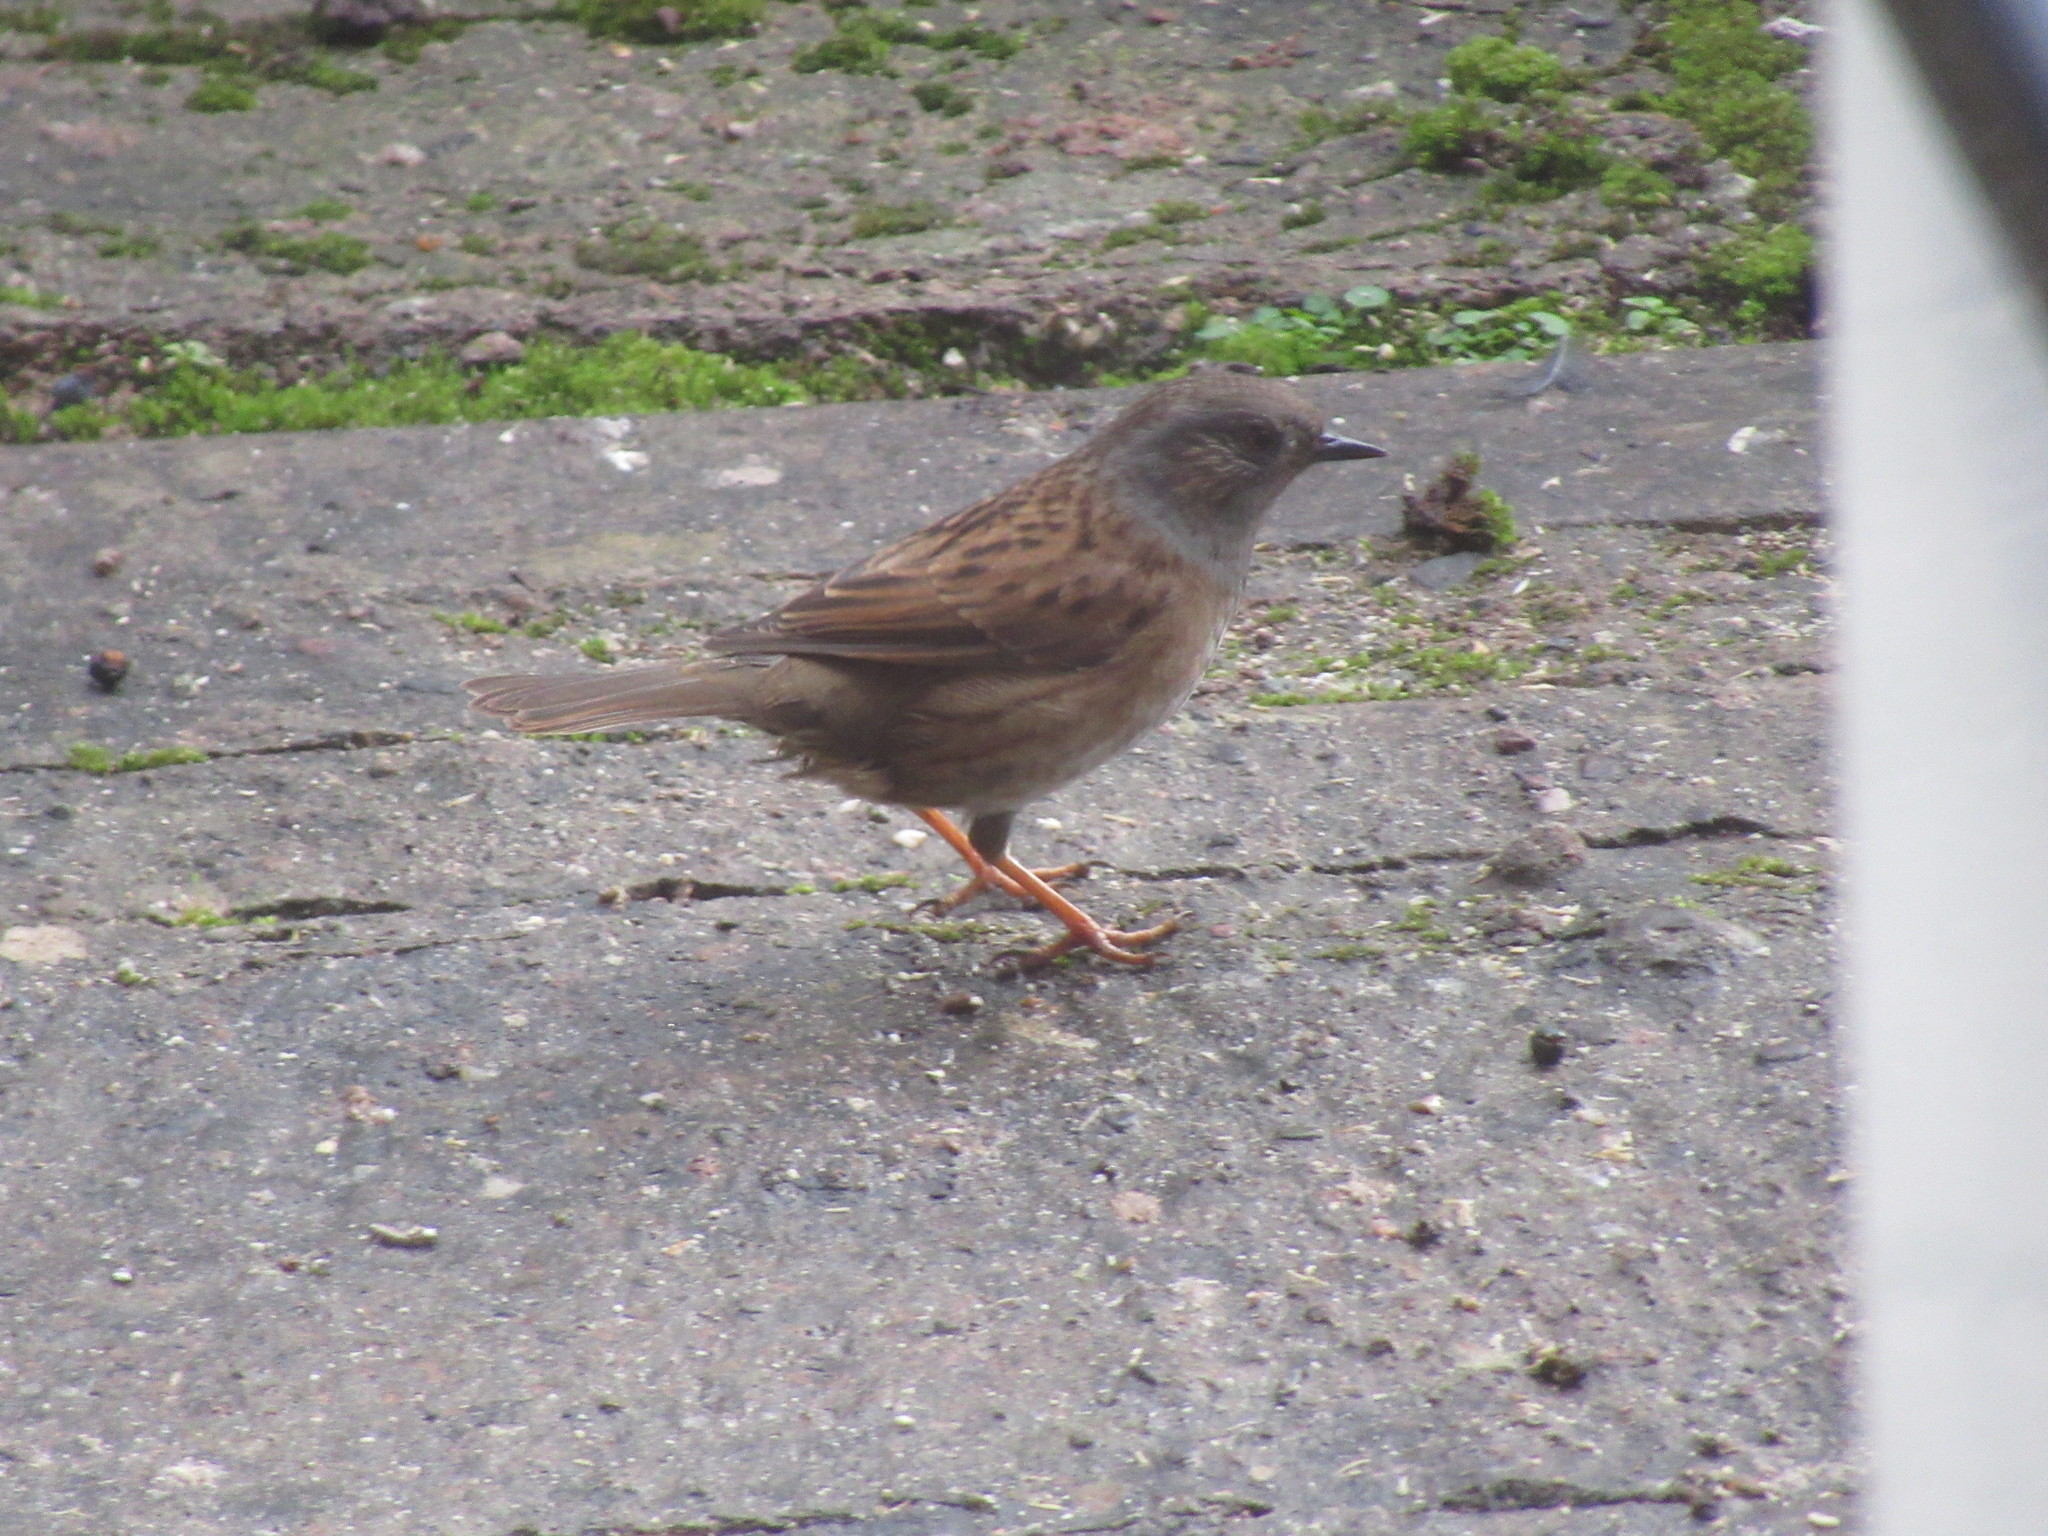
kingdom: Animalia
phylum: Chordata
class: Aves
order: Passeriformes
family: Prunellidae
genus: Prunella
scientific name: Prunella modularis
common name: Dunnock
